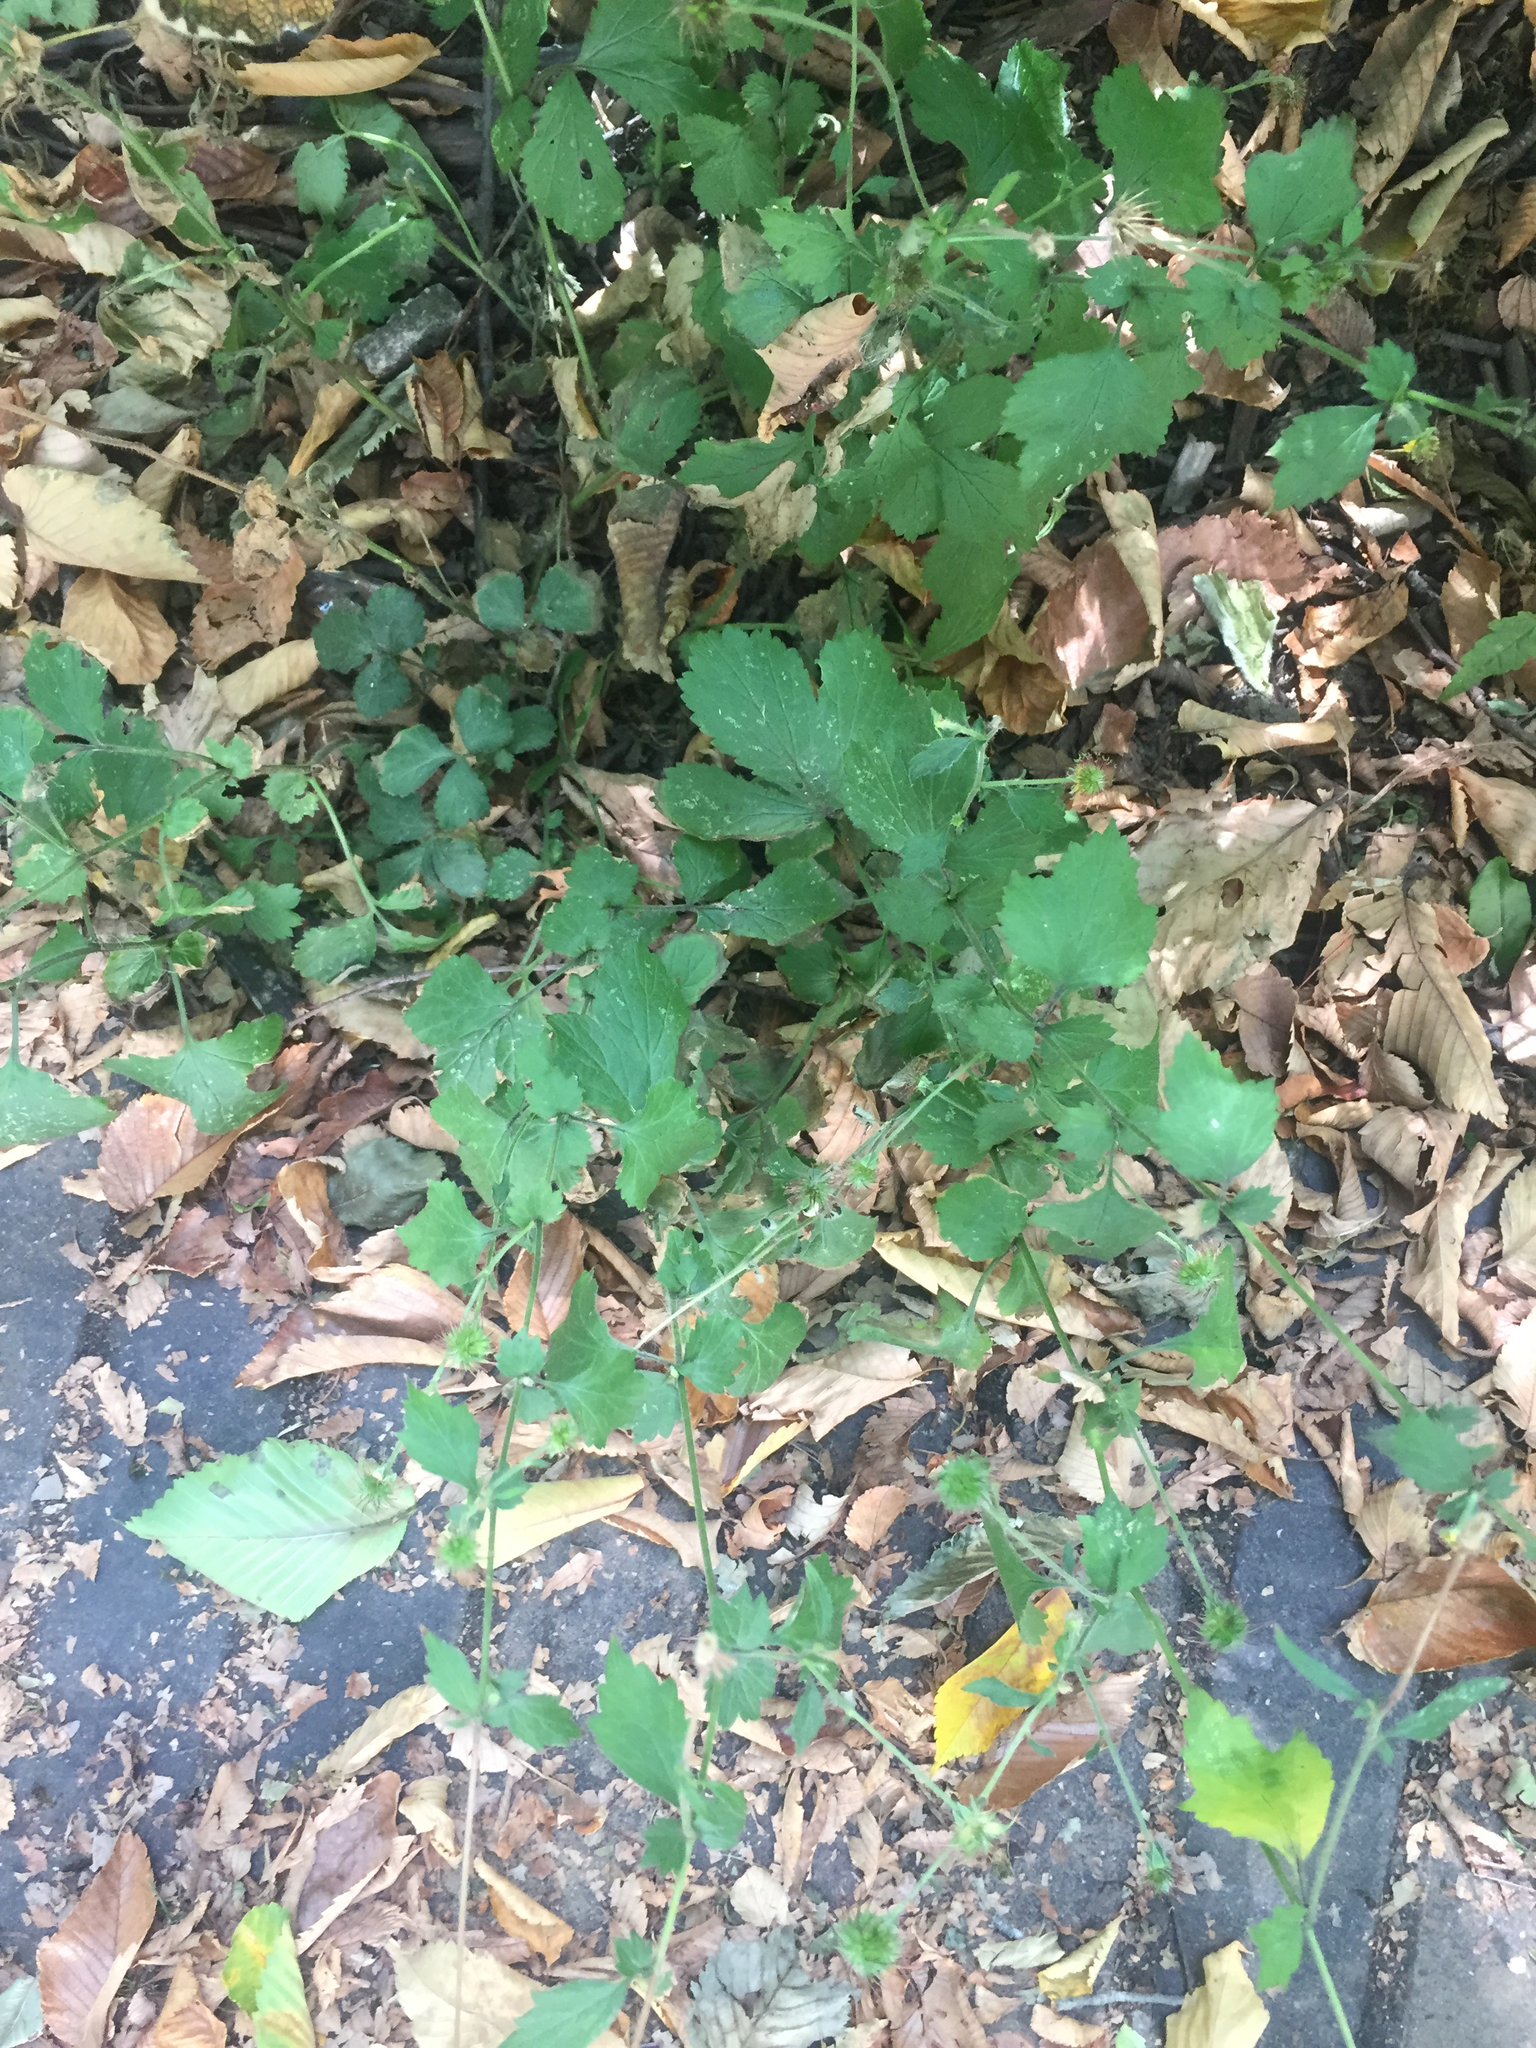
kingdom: Plantae
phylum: Tracheophyta
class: Magnoliopsida
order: Rosales
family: Rosaceae
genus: Geum
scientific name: Geum urbanum
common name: Wood avens
